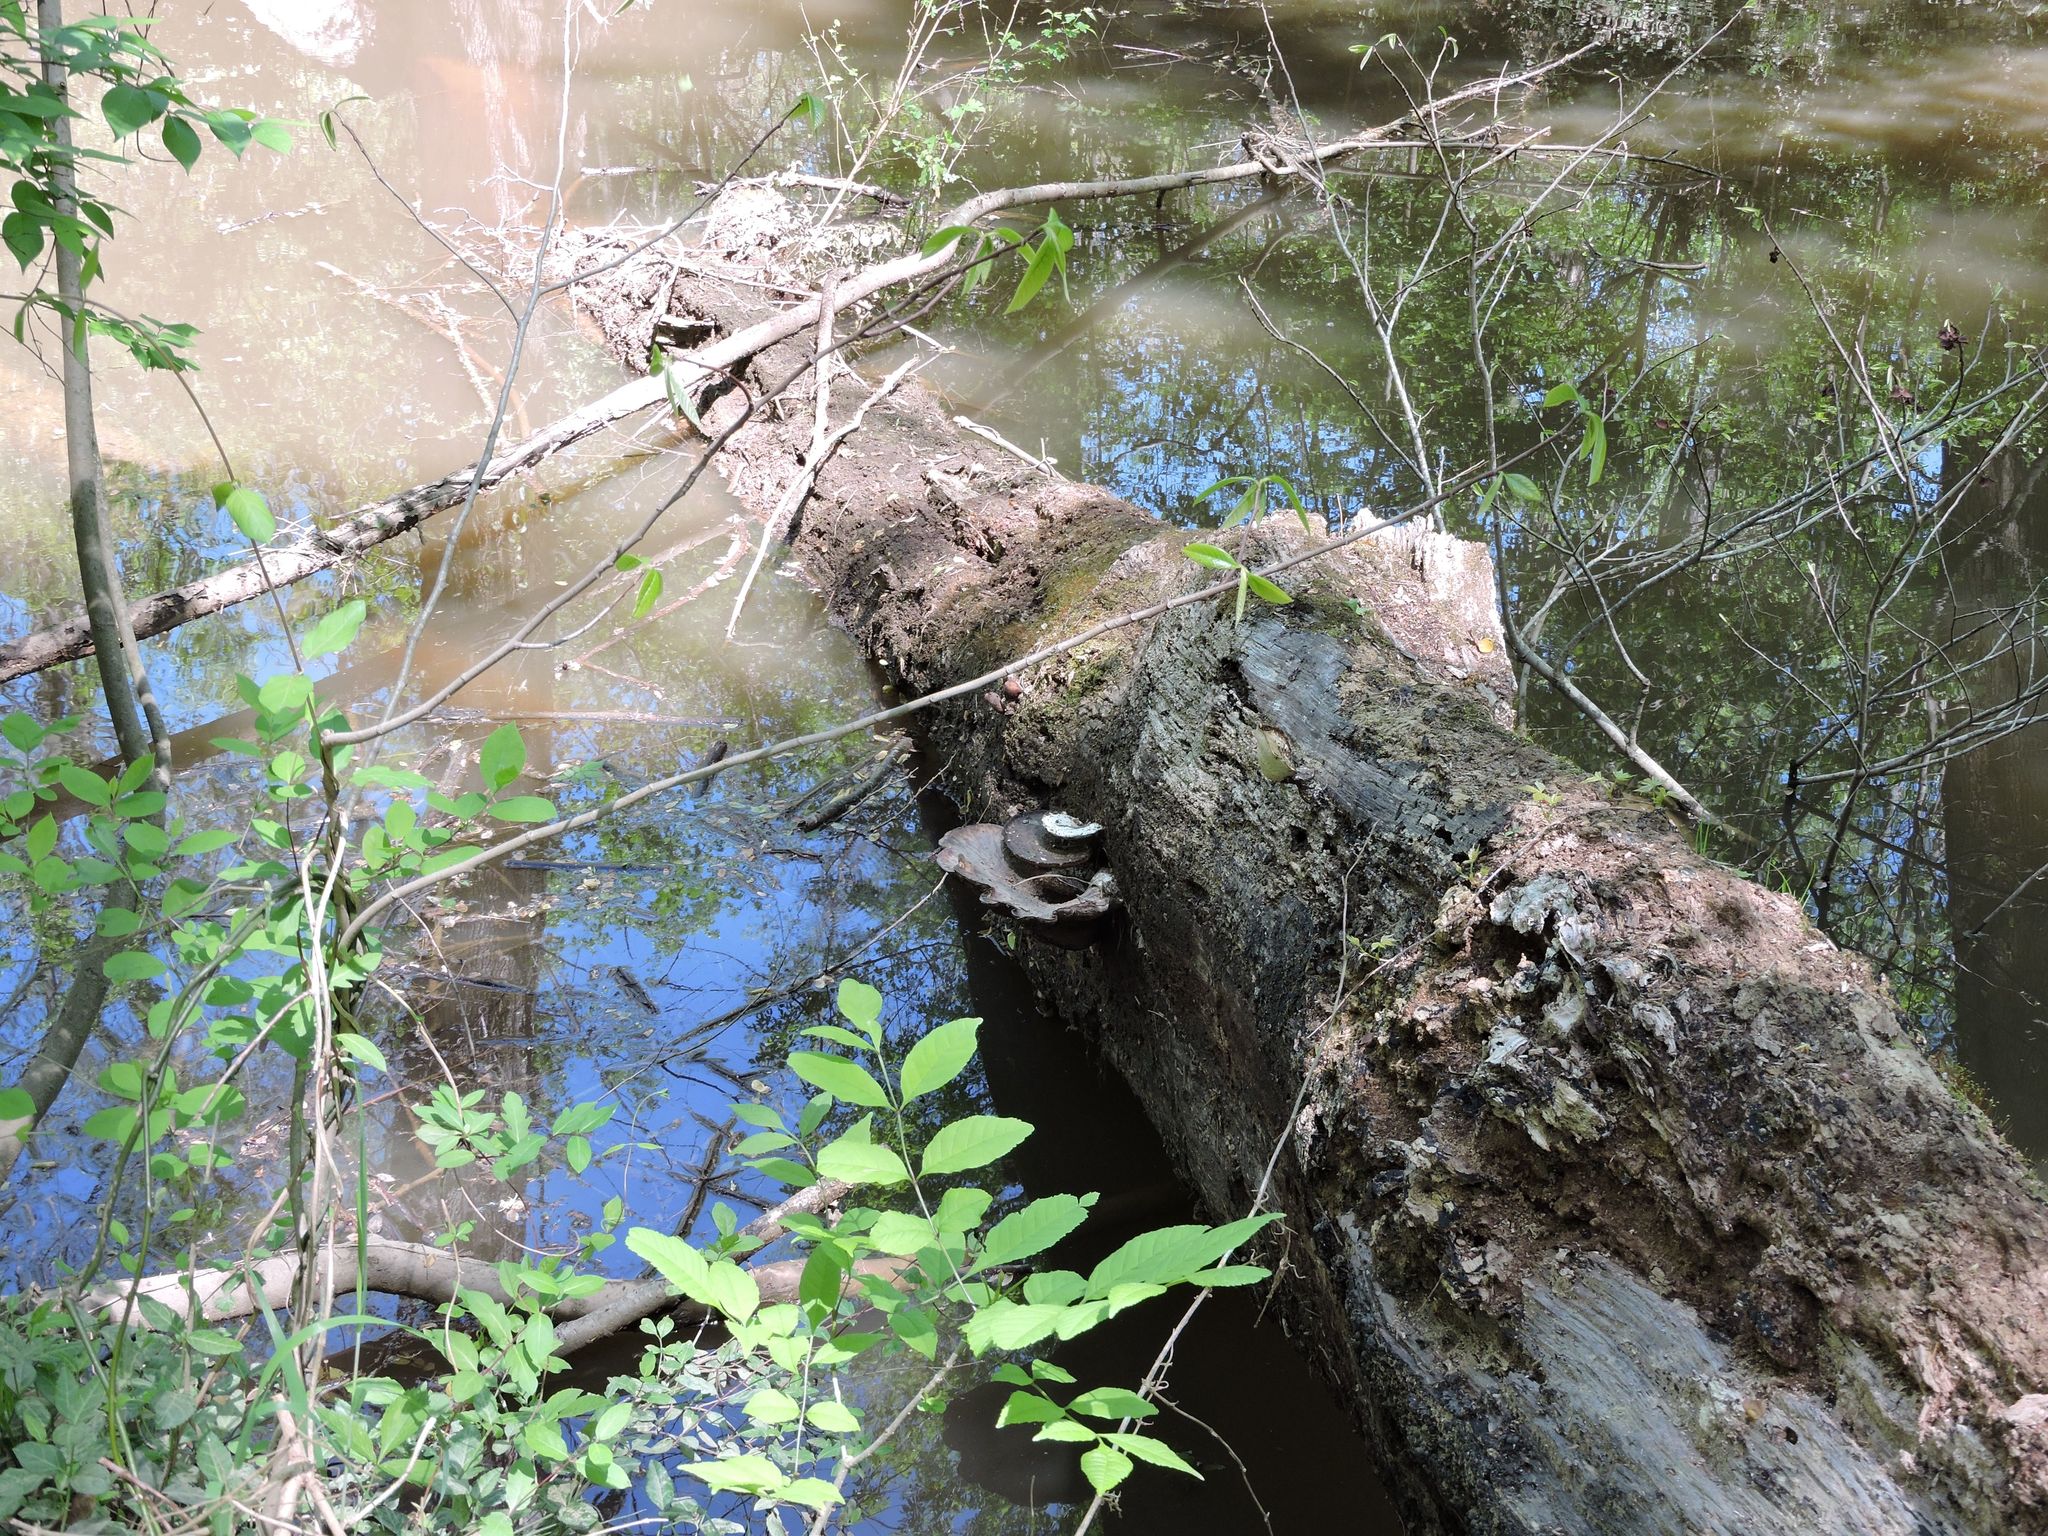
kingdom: Fungi
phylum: Basidiomycota
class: Agaricomycetes
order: Polyporales
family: Polyporaceae
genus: Cerioporus
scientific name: Cerioporus squamosus
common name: Dryad's saddle
